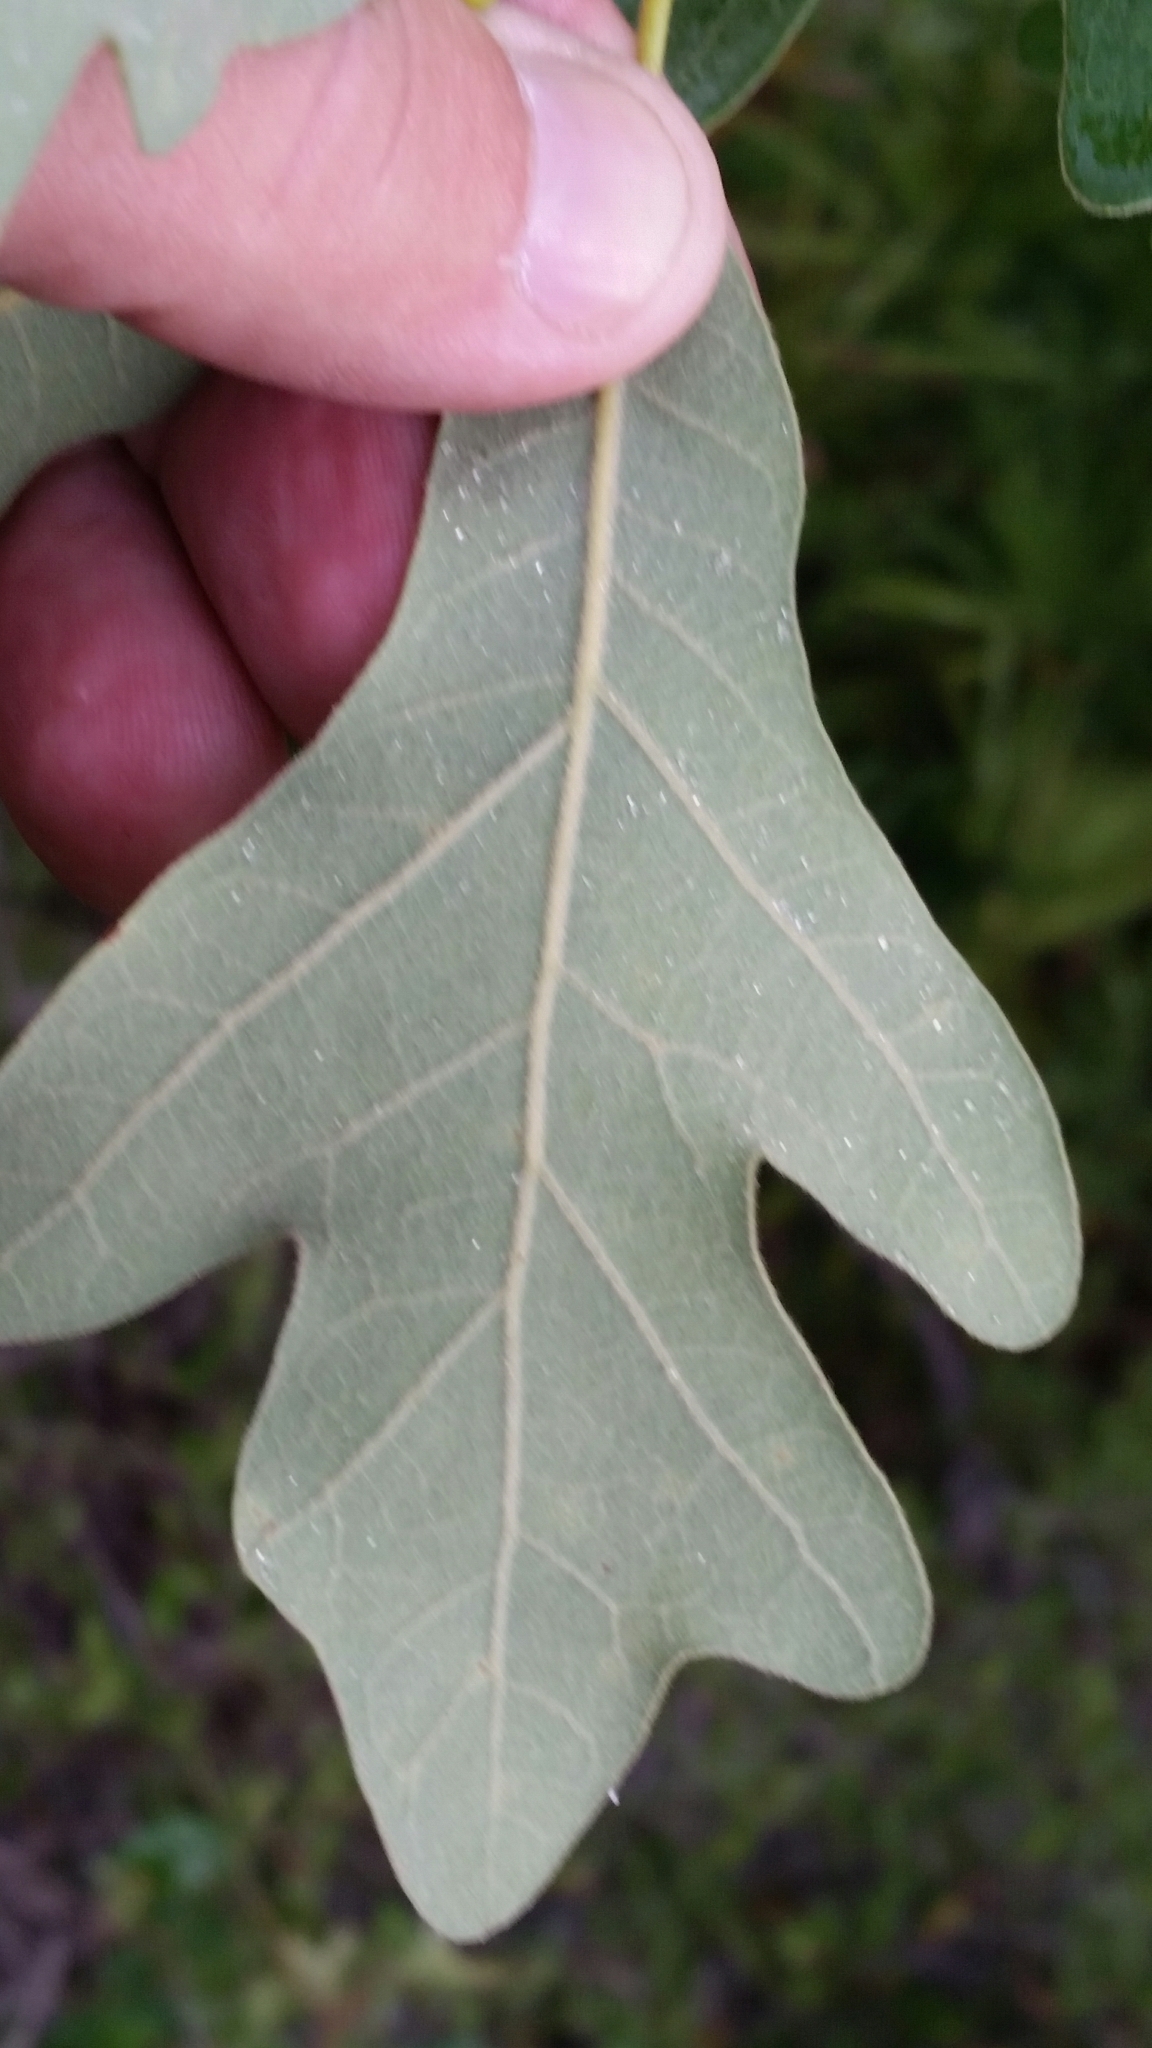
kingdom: Plantae
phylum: Tracheophyta
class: Magnoliopsida
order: Fagales
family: Fagaceae
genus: Quercus
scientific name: Quercus margaretiae
